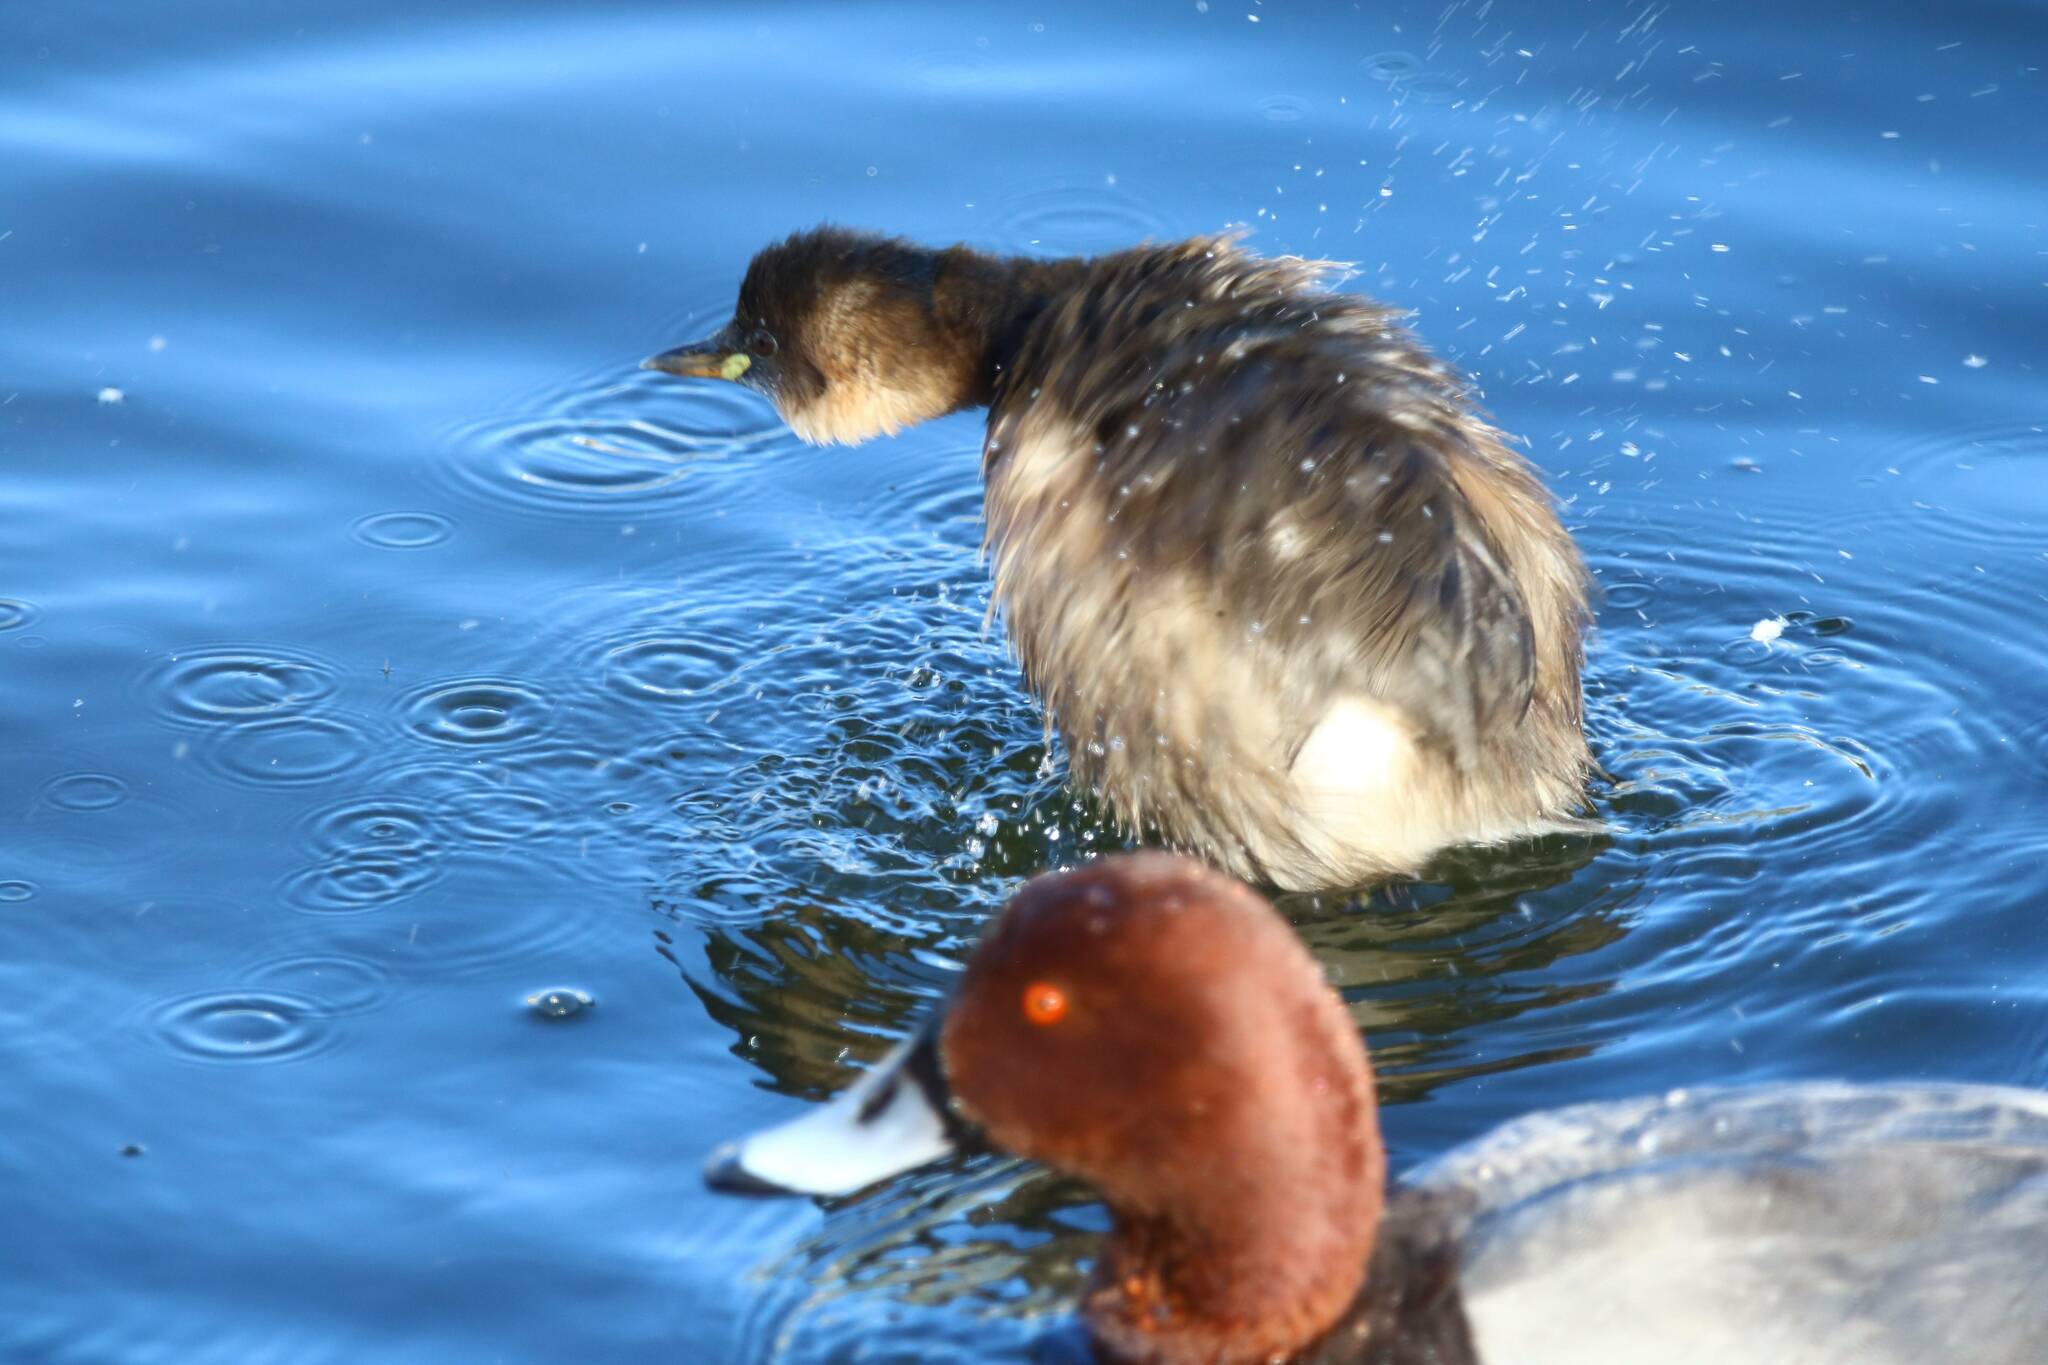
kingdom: Animalia
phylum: Chordata
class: Aves
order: Podicipediformes
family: Podicipedidae
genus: Tachybaptus
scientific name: Tachybaptus ruficollis
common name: Little grebe
